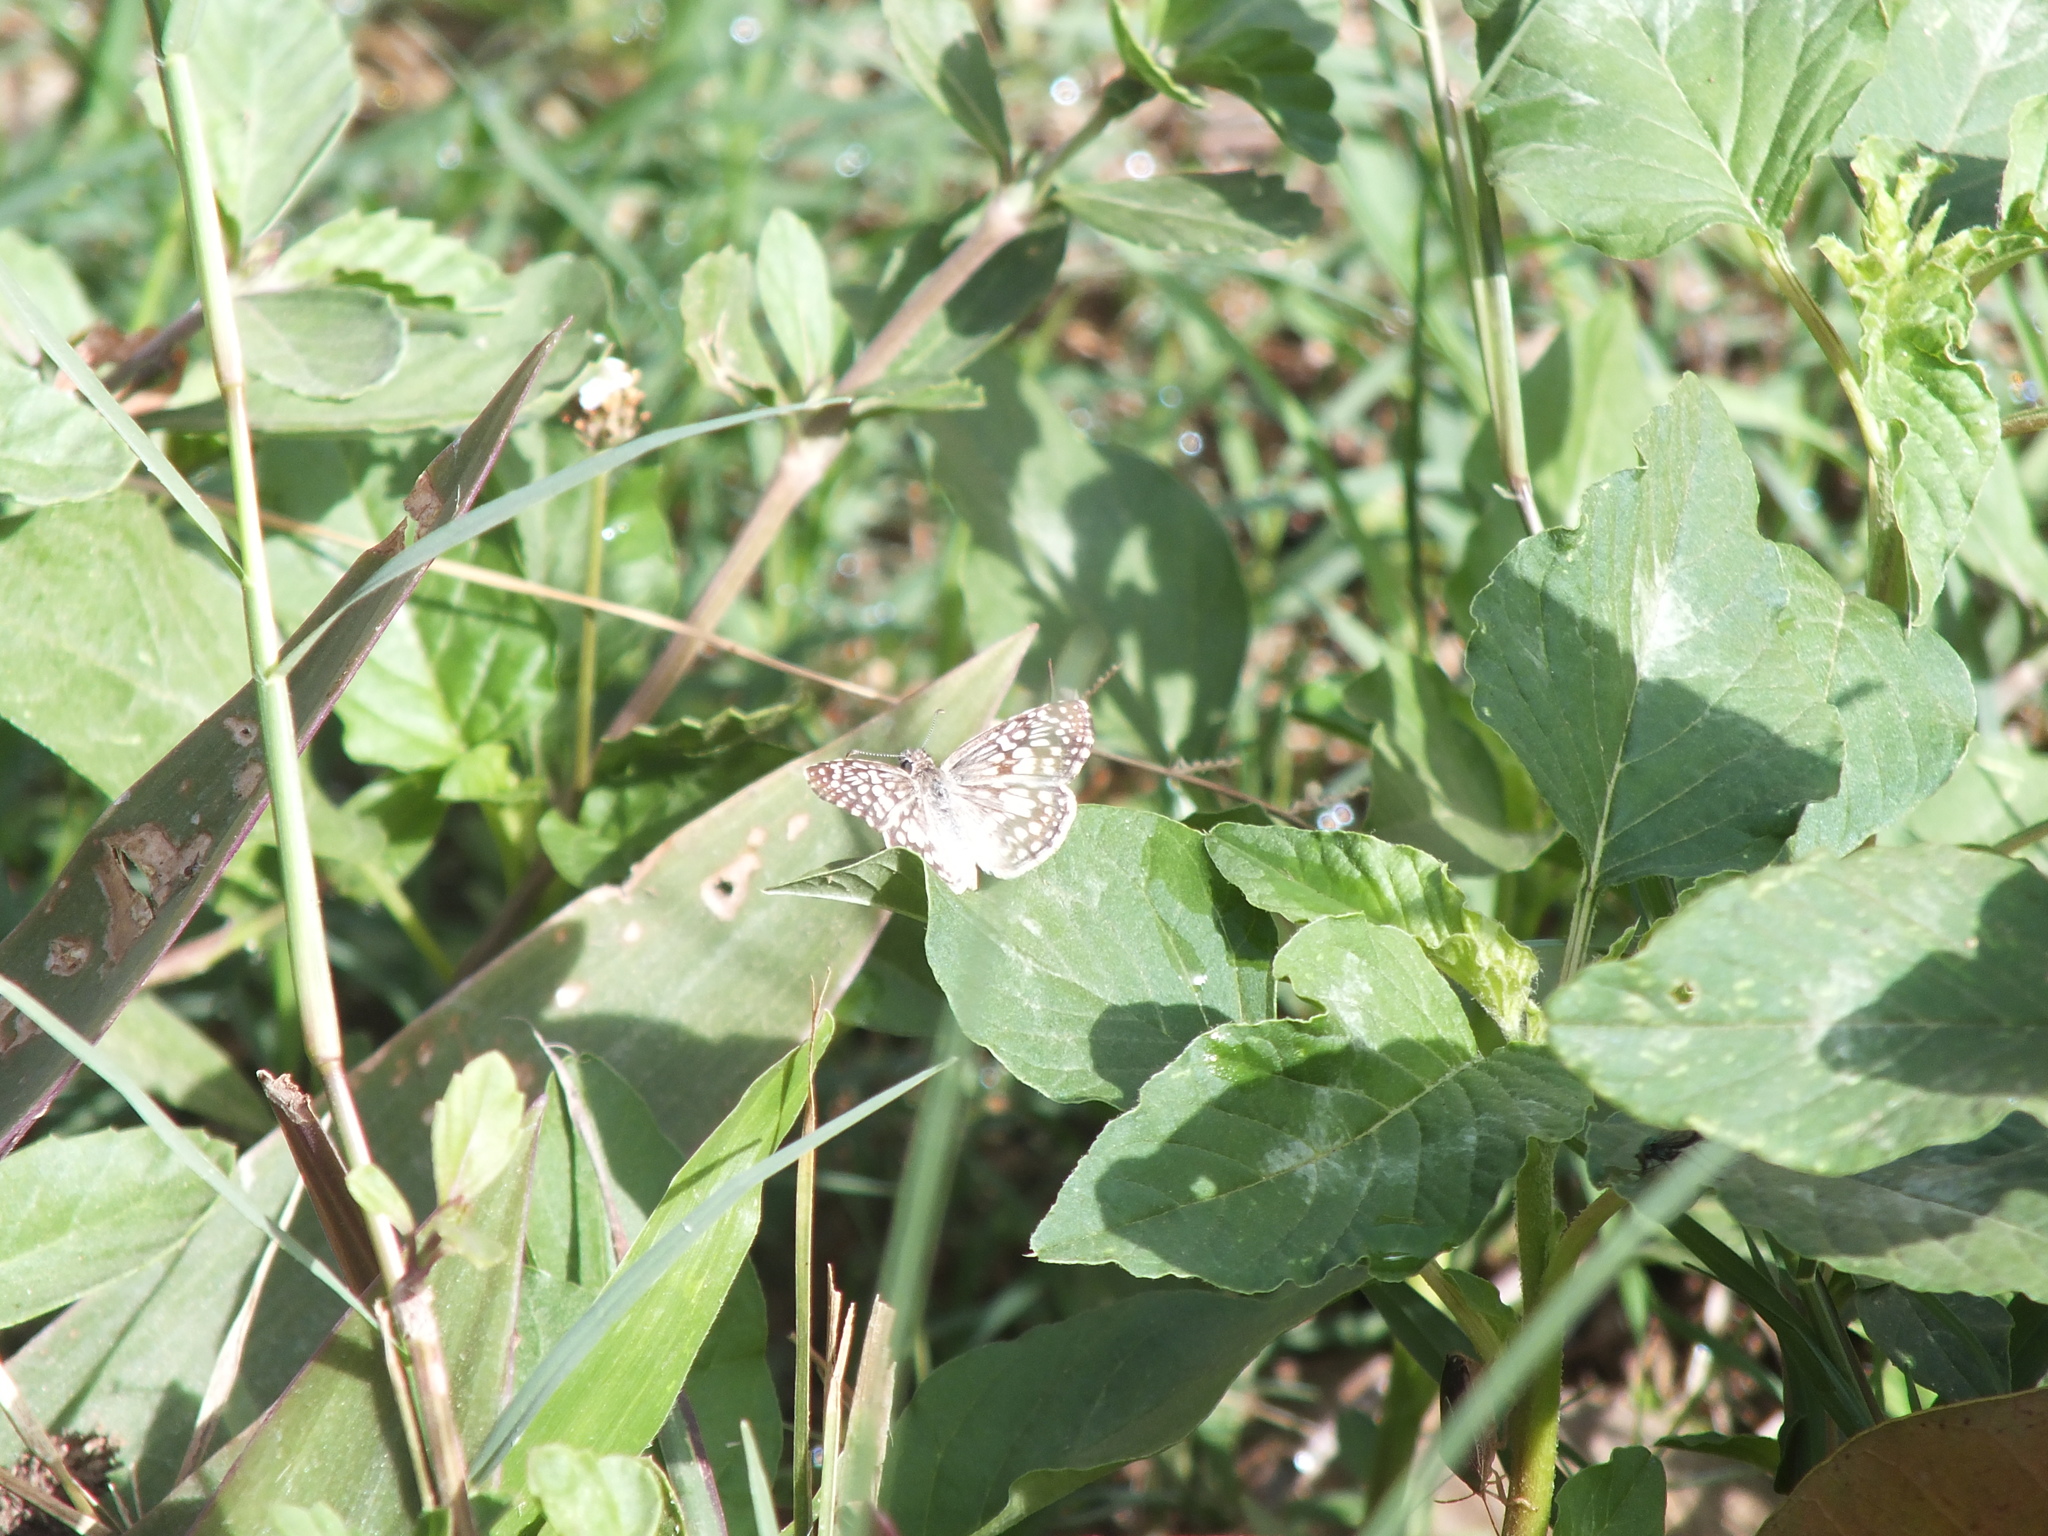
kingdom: Animalia
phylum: Arthropoda
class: Insecta
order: Lepidoptera
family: Hesperiidae
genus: Pyrgus
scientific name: Pyrgus oileus
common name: Tropical checkered-skipper
